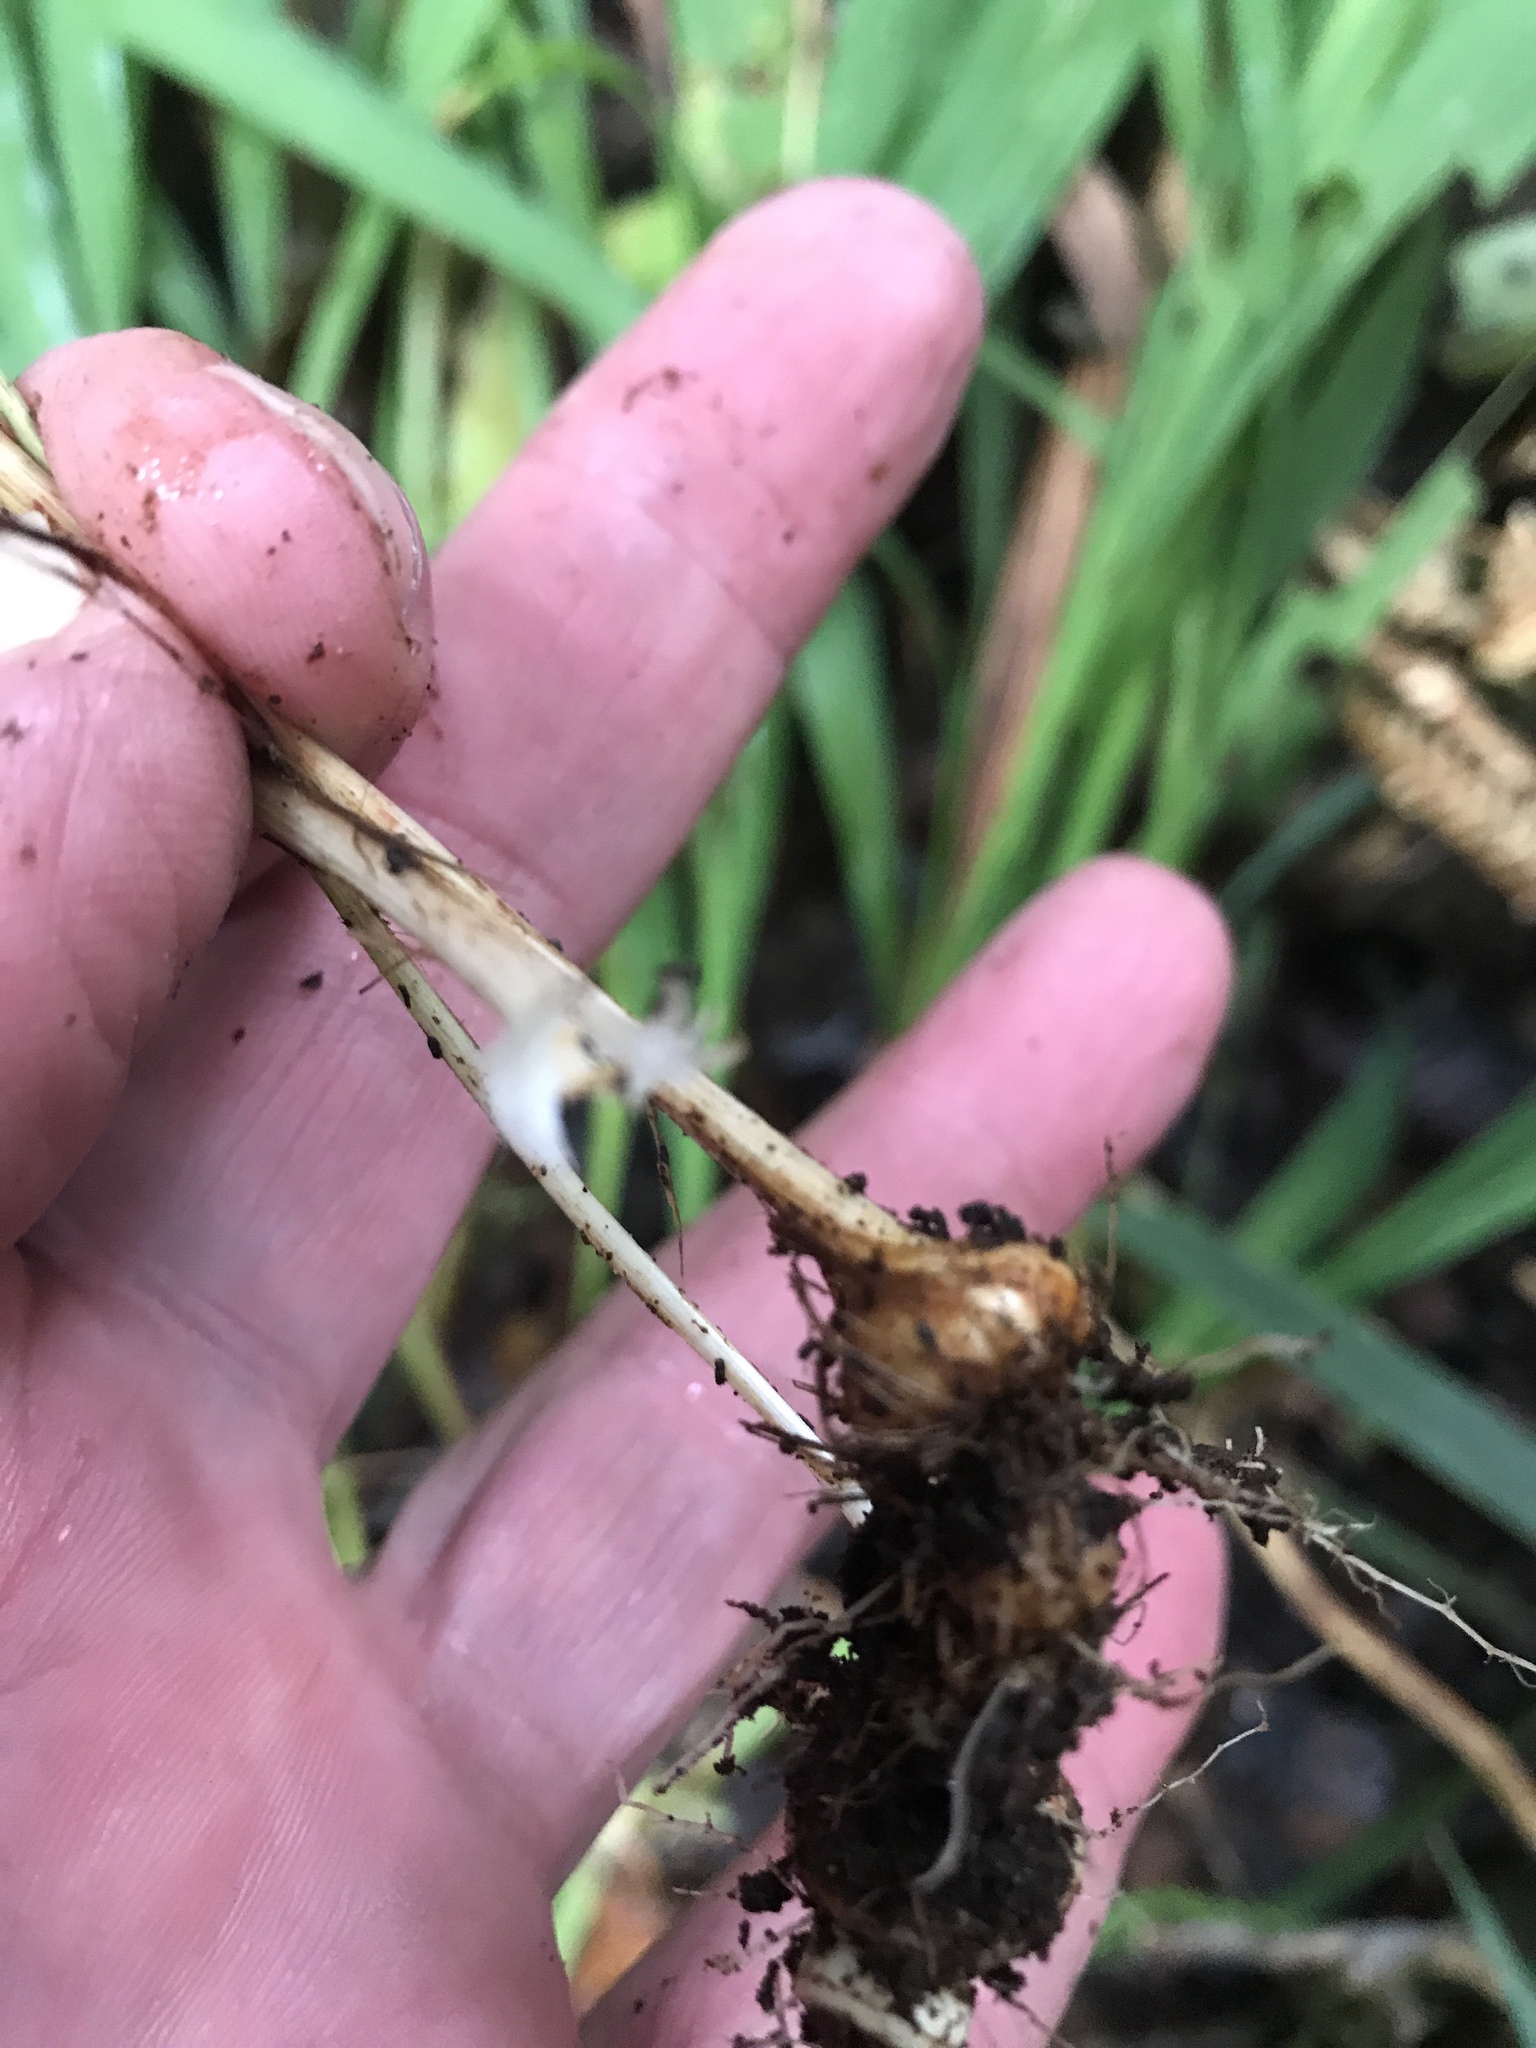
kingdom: Plantae
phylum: Tracheophyta
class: Liliopsida
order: Asparagales
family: Iridaceae
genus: Crocosmia
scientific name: Crocosmia crocosmiiflora
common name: Montbretia
